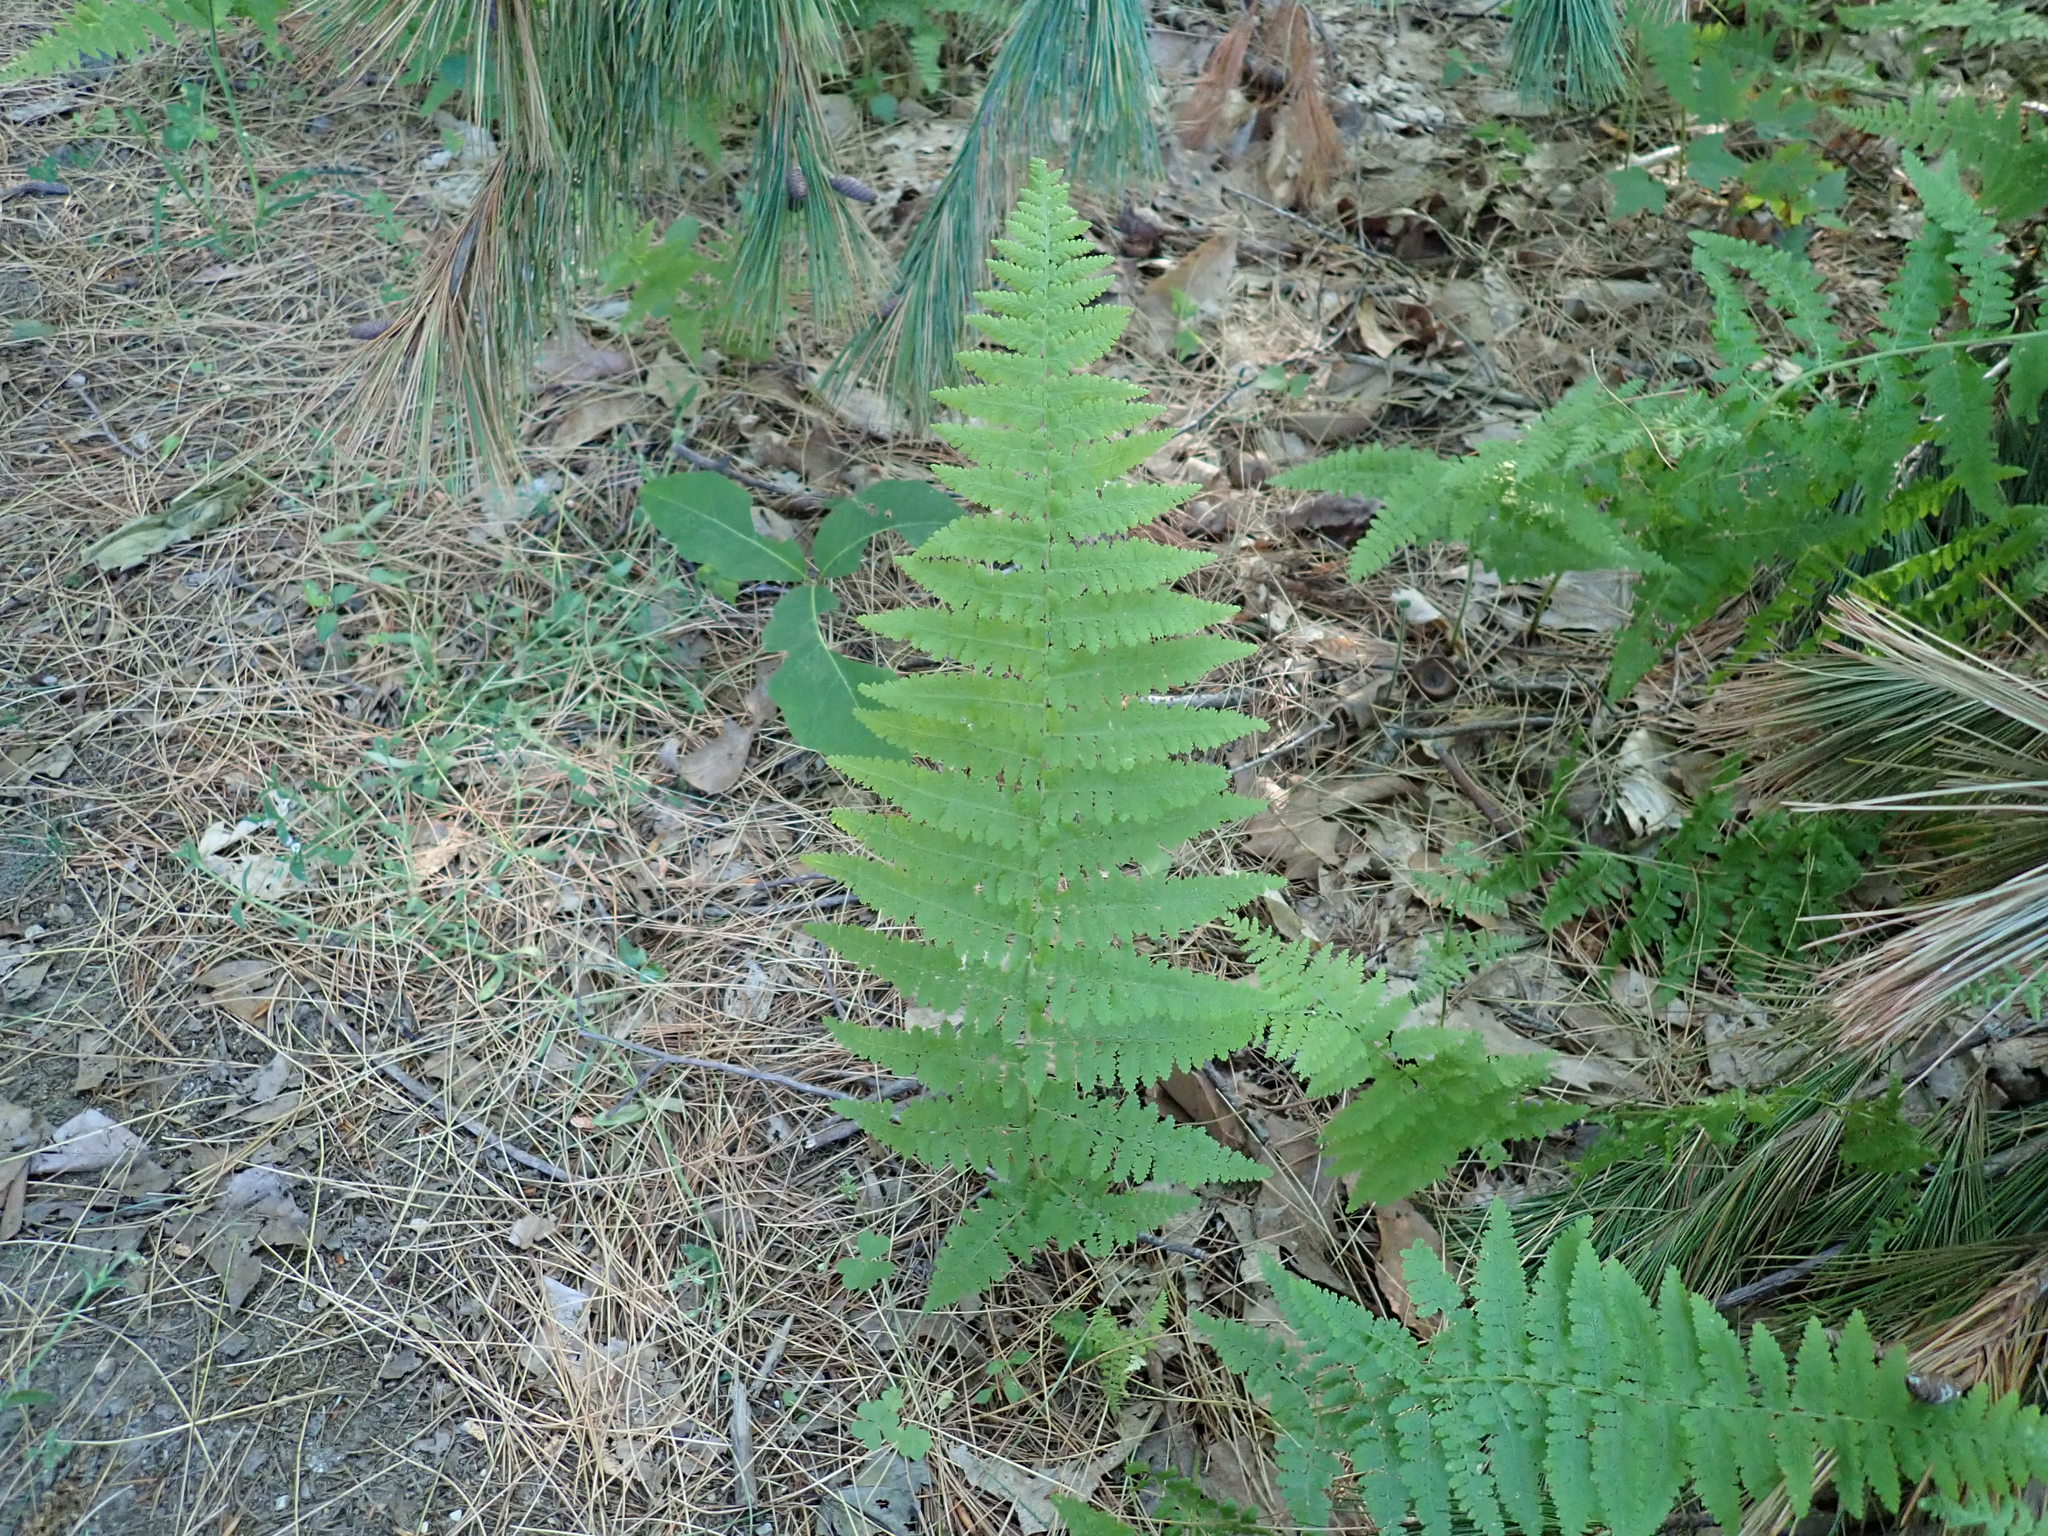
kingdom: Plantae
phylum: Tracheophyta
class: Polypodiopsida
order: Polypodiales
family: Dennstaedtiaceae
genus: Sitobolium
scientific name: Sitobolium punctilobum
